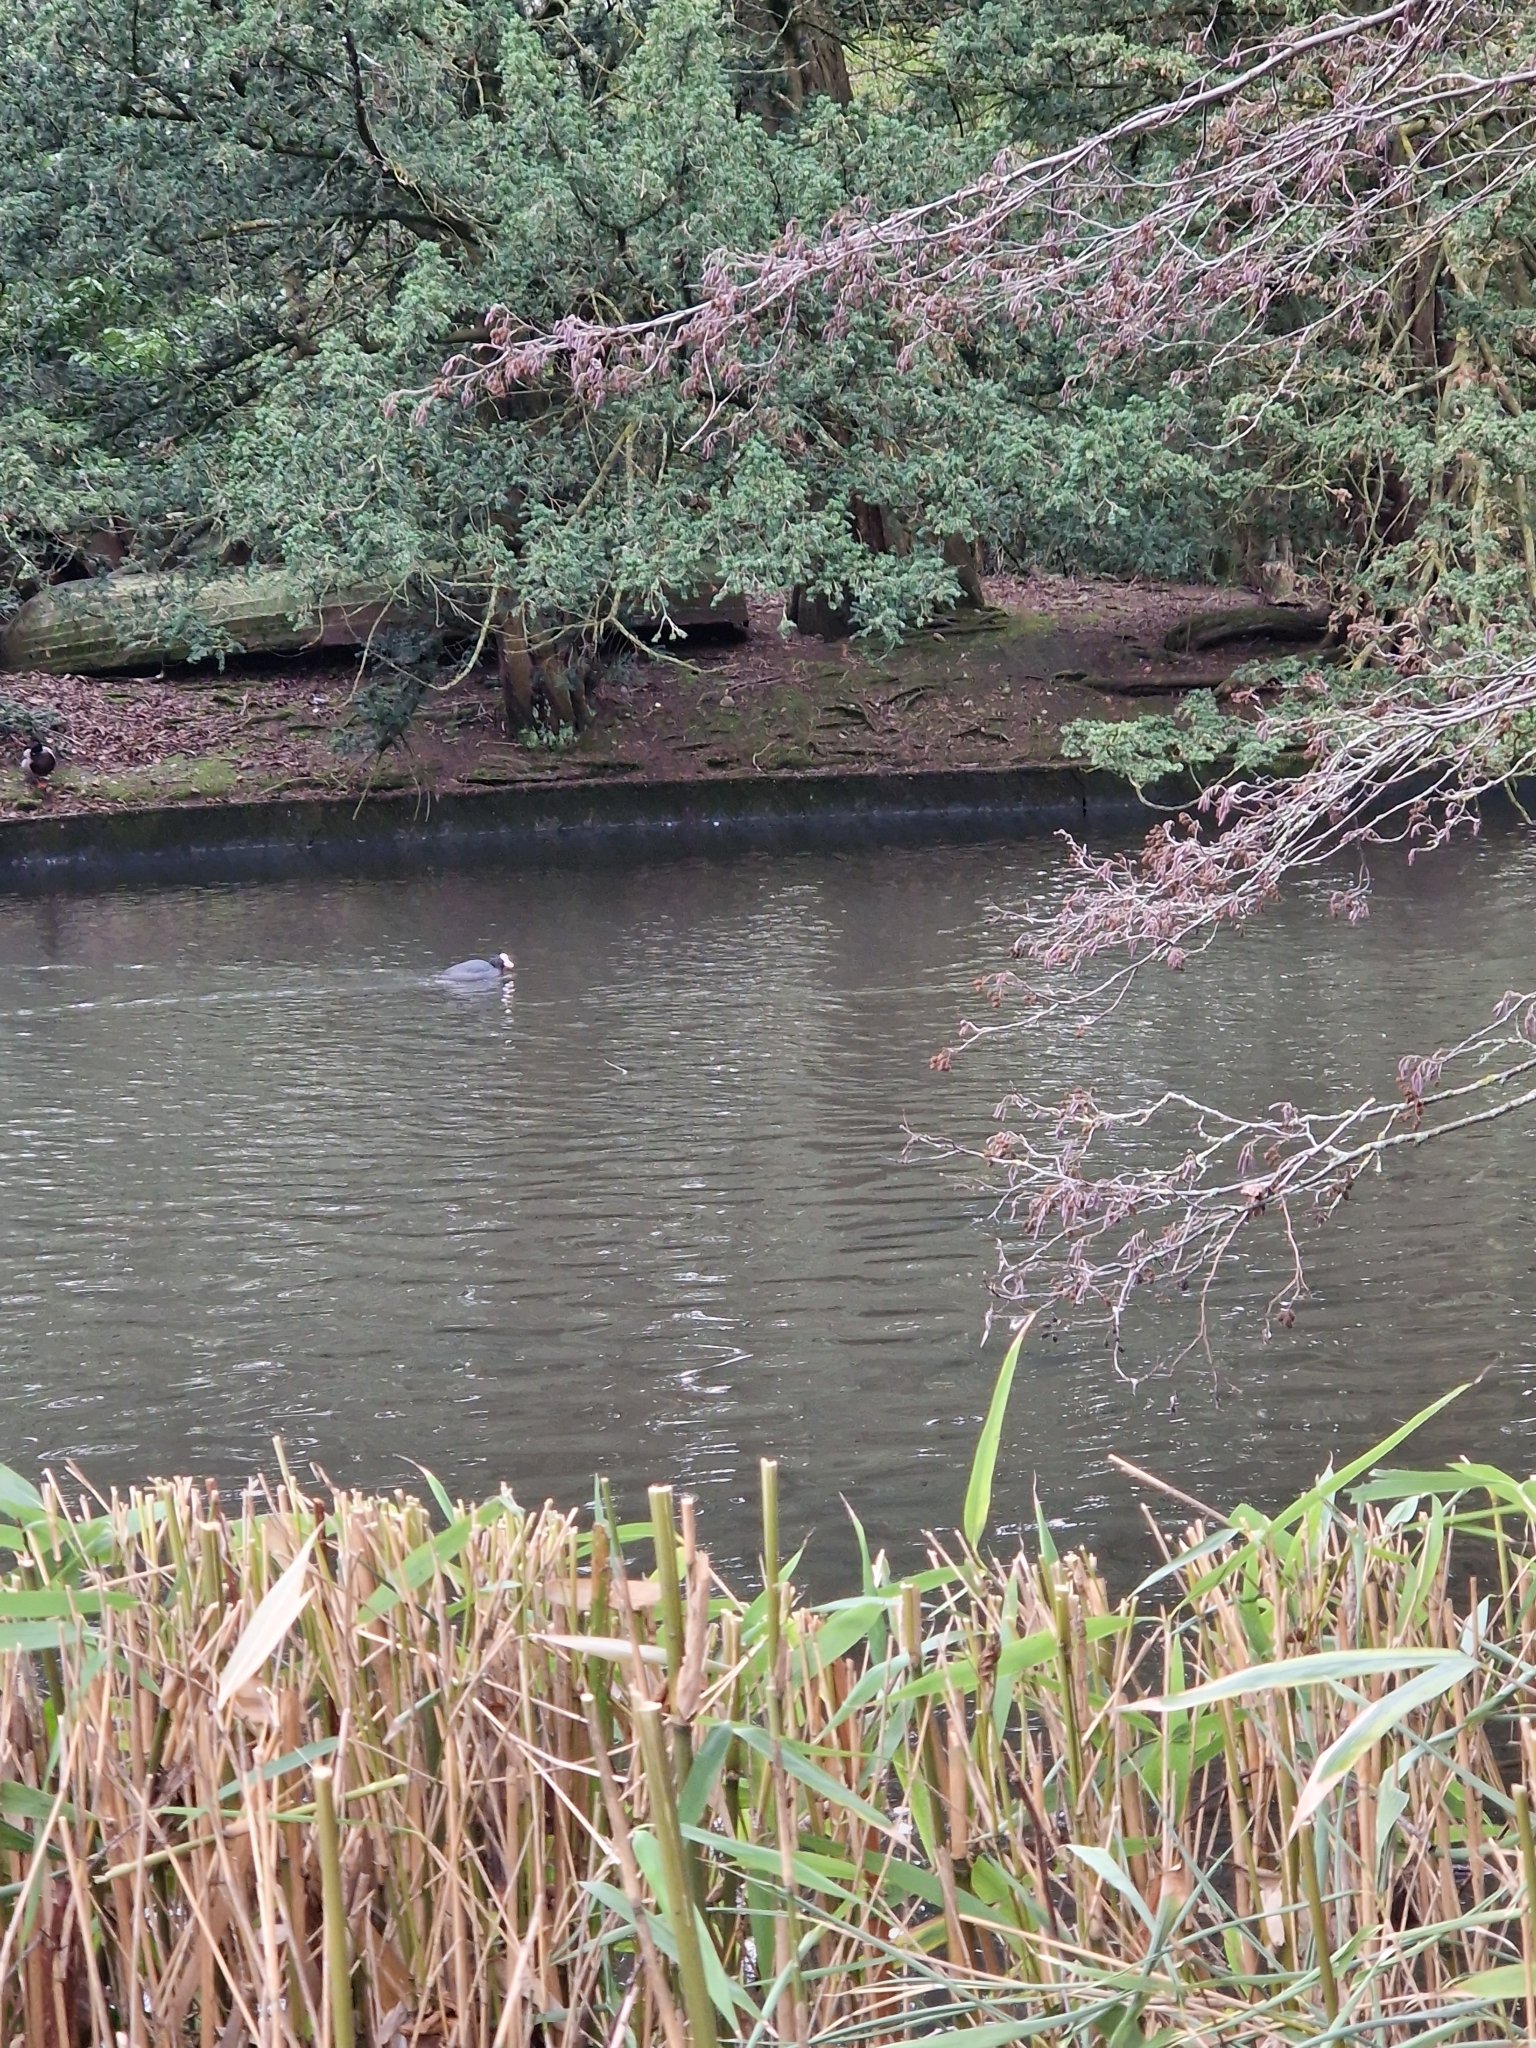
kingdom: Animalia
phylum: Chordata
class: Aves
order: Gruiformes
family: Rallidae
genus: Fulica
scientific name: Fulica atra
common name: Eurasian coot
